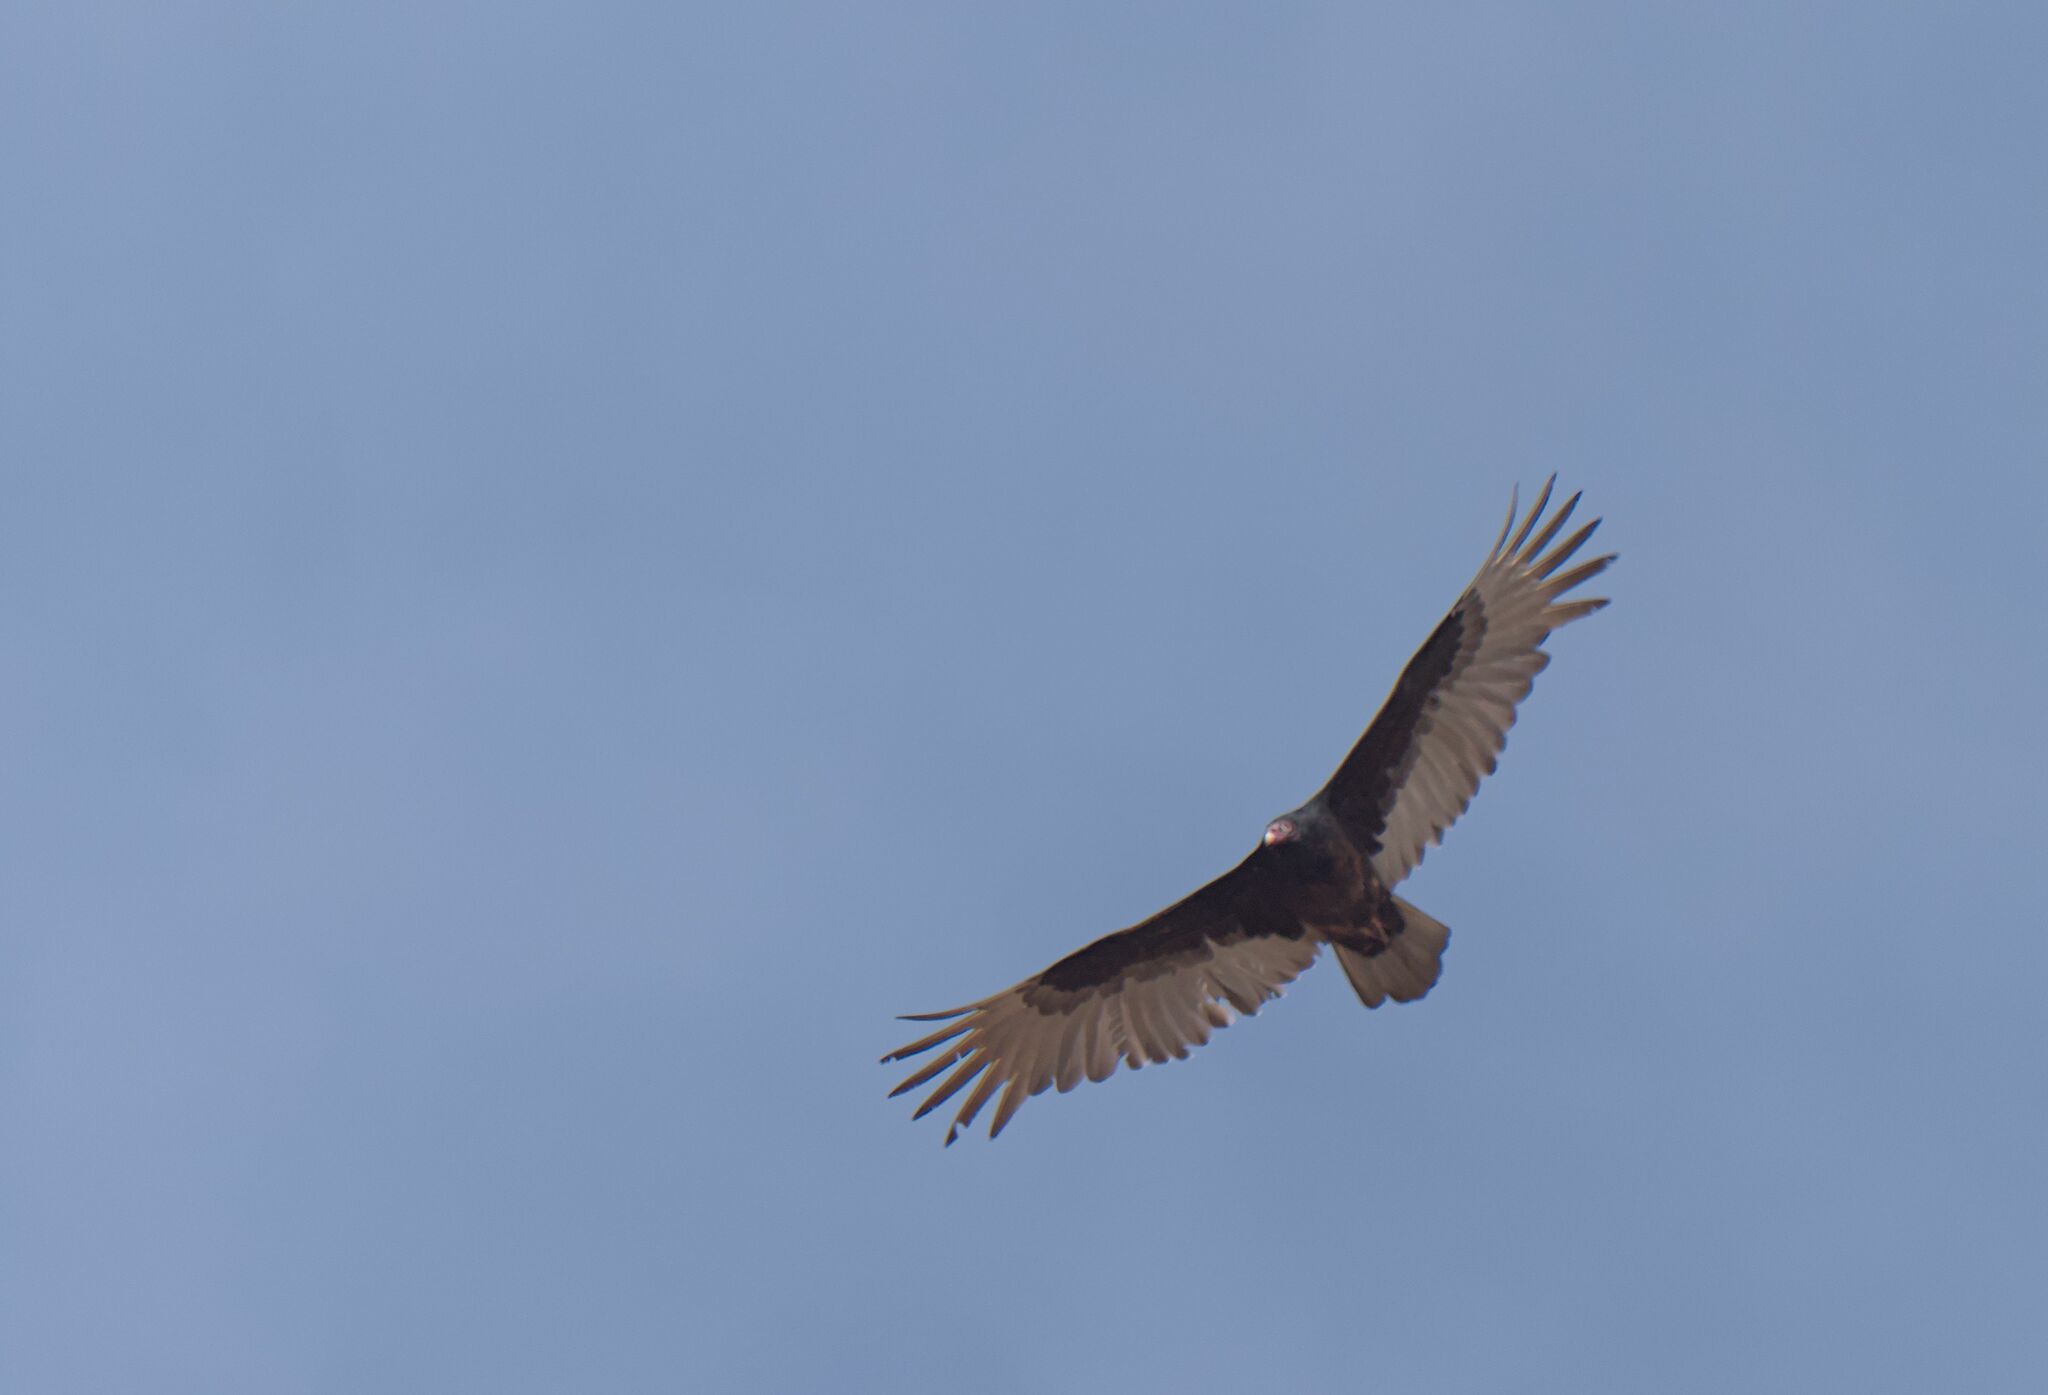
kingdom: Animalia
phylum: Chordata
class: Aves
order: Accipitriformes
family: Cathartidae
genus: Cathartes
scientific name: Cathartes aura
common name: Turkey vulture
